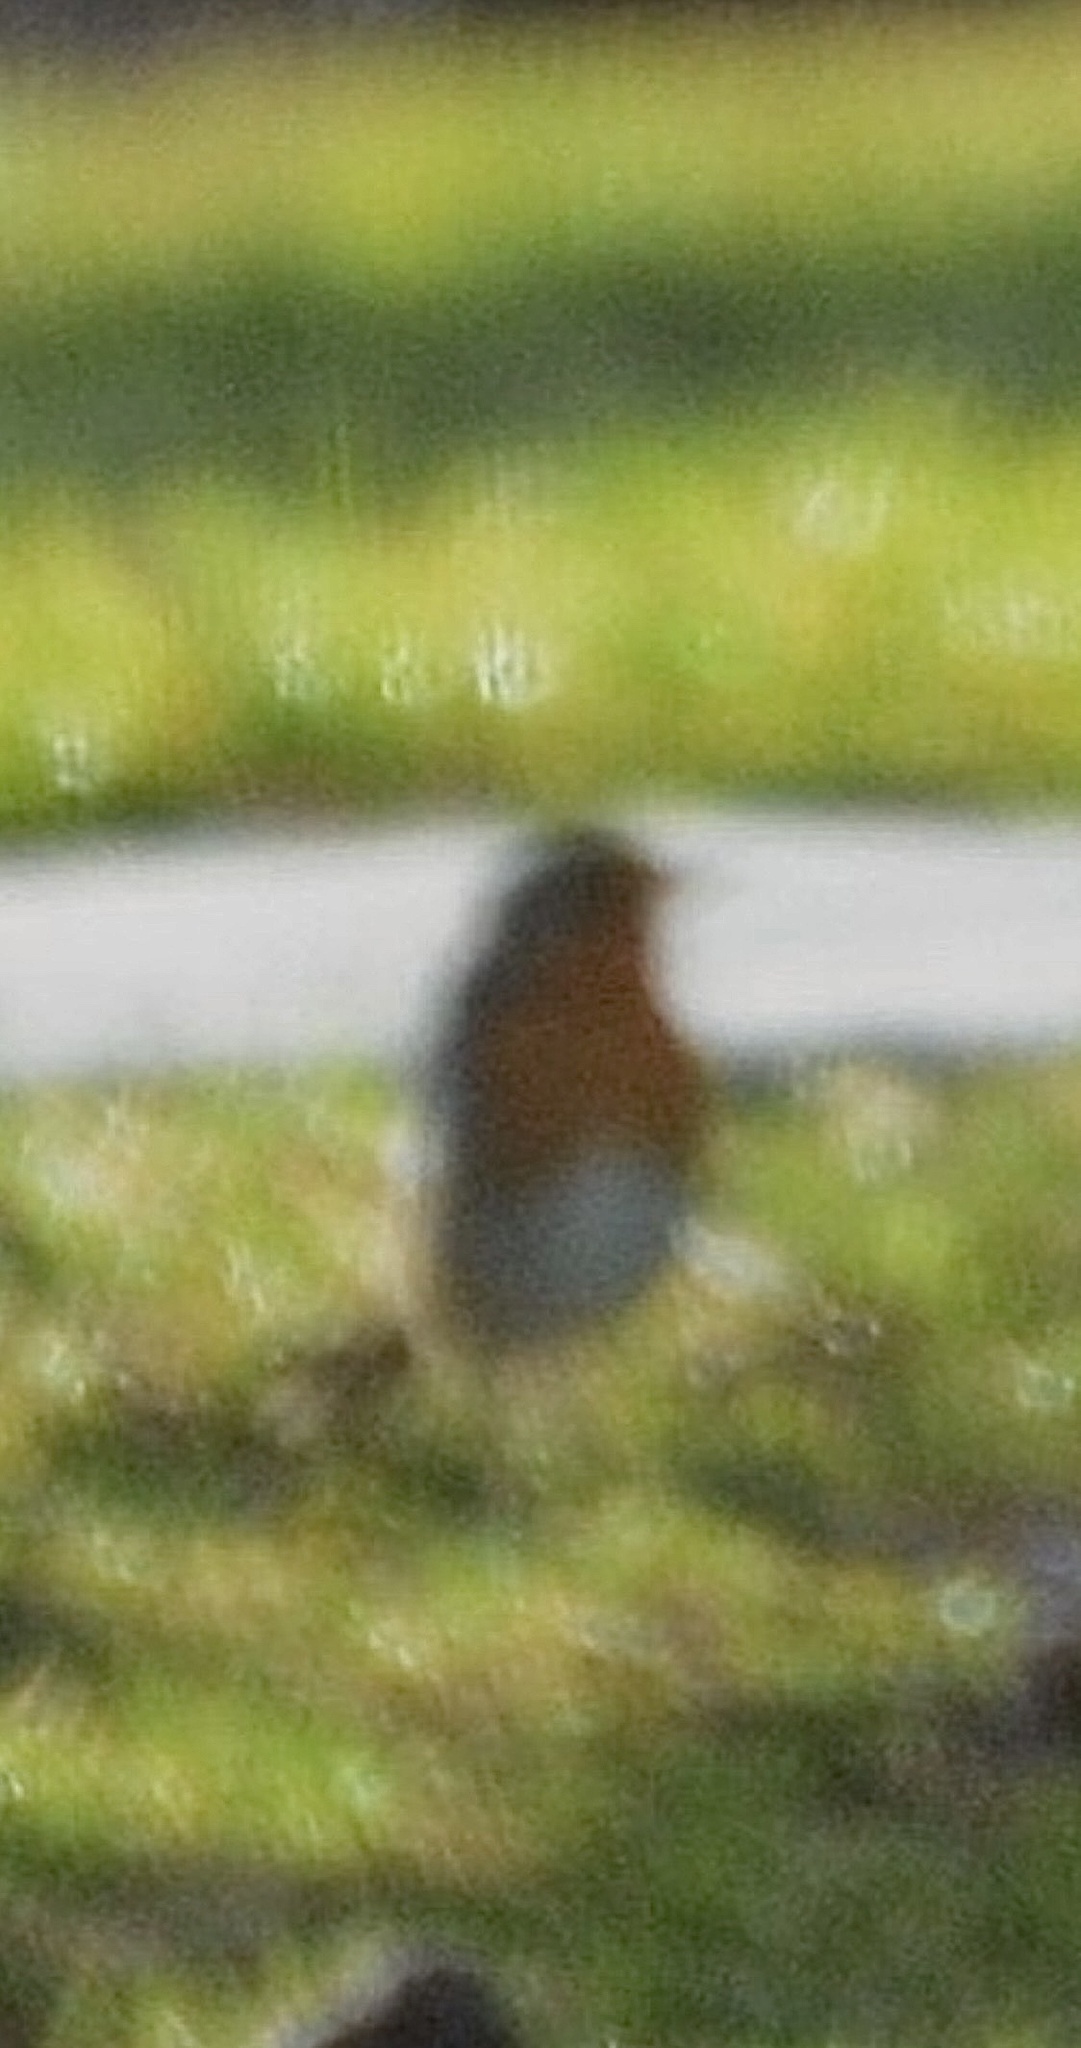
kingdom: Animalia
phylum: Chordata
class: Aves
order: Passeriformes
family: Muscicapidae
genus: Erithacus
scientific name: Erithacus rubecula
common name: European robin
